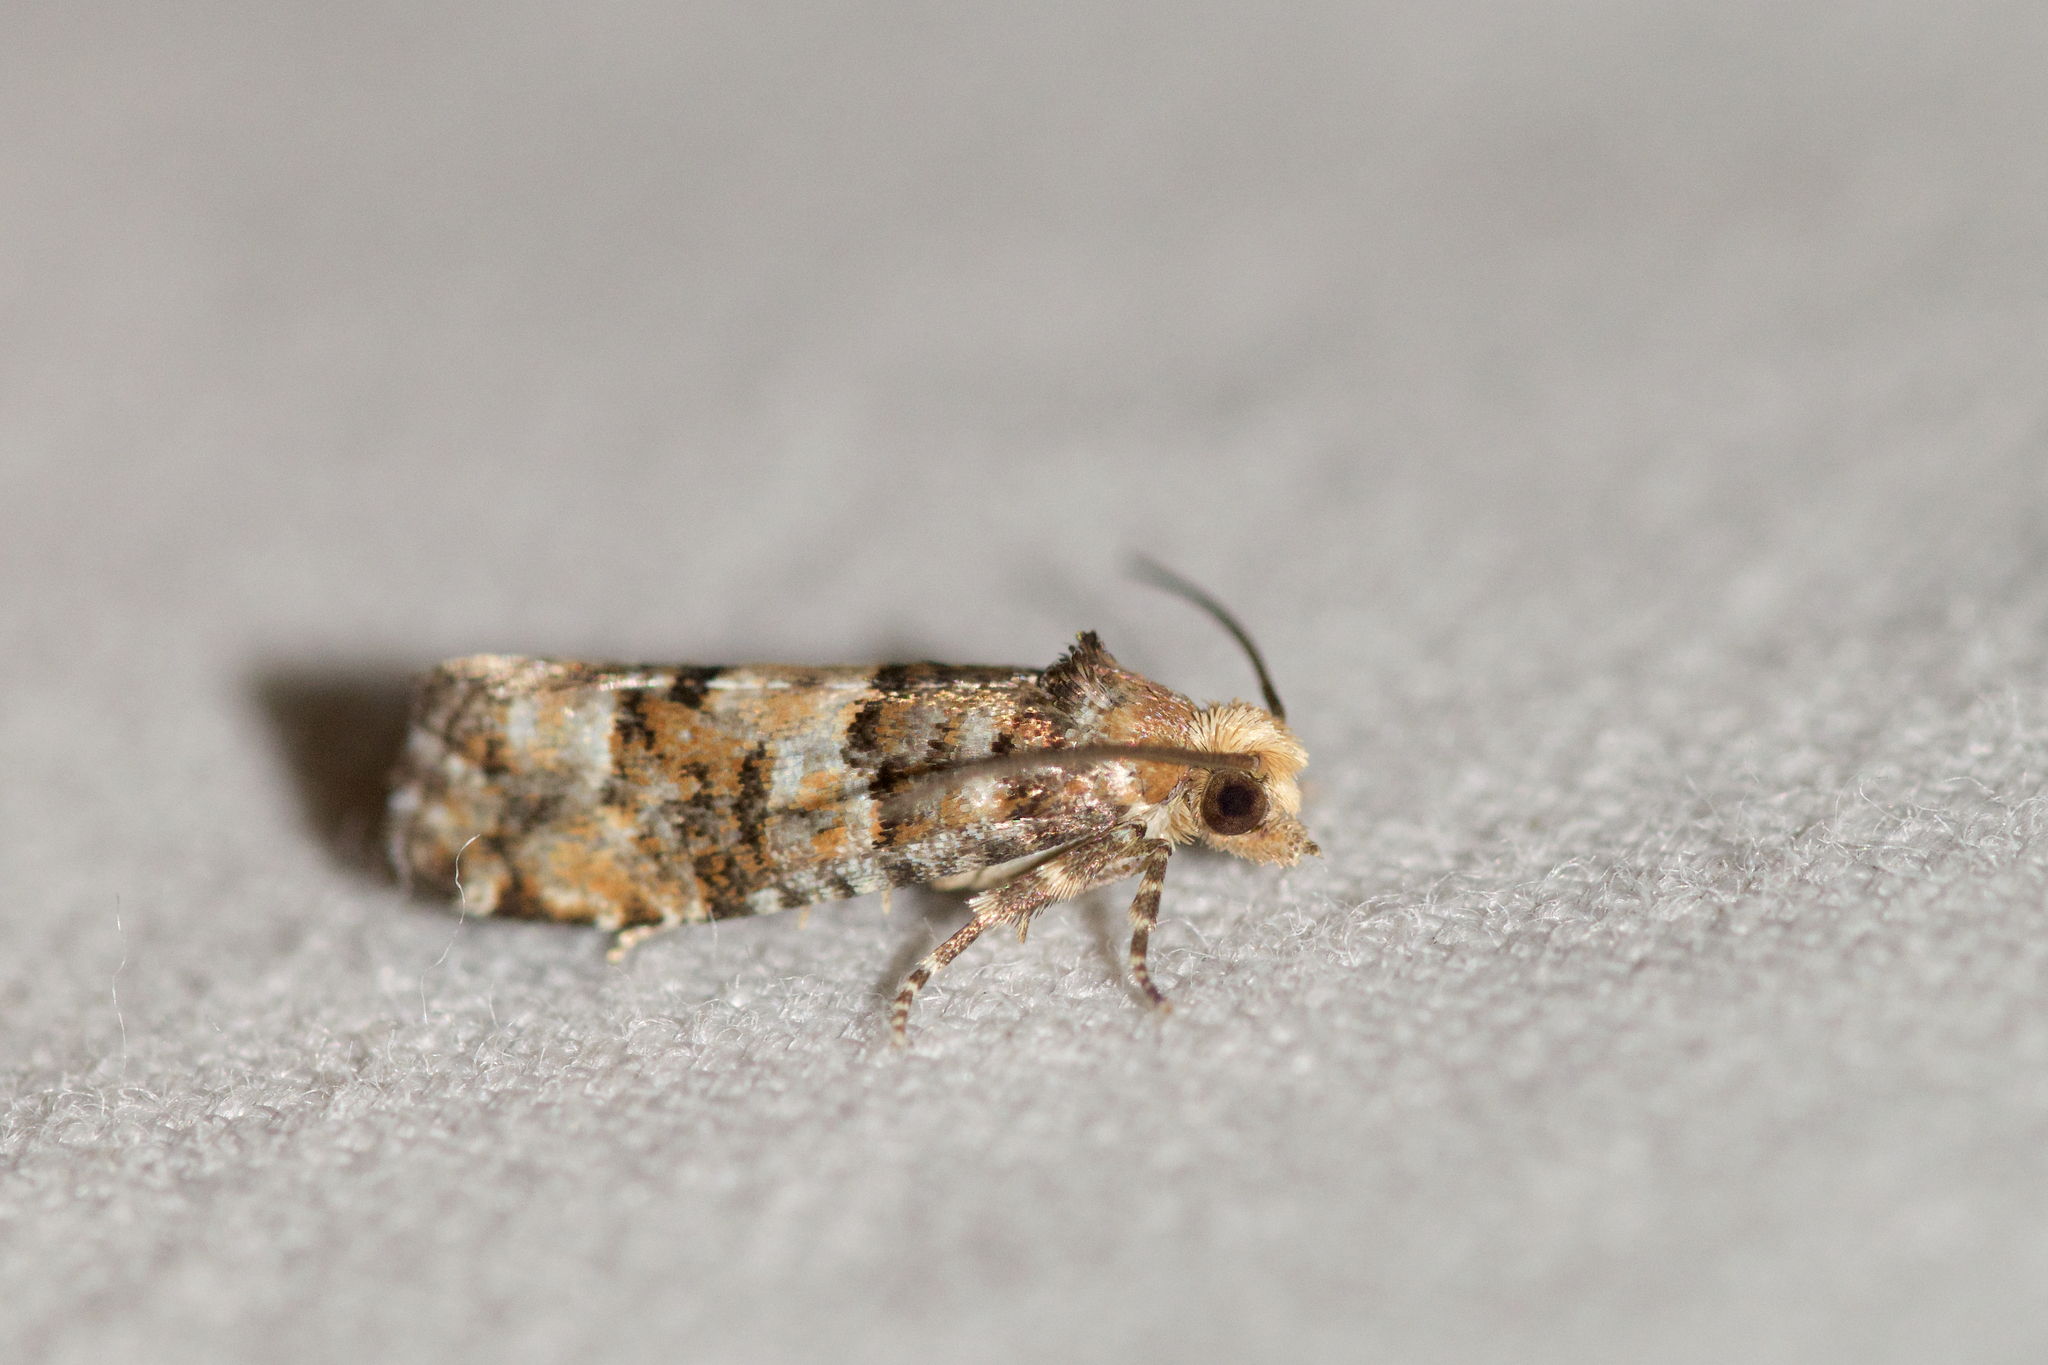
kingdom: Animalia
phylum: Arthropoda
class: Insecta
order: Lepidoptera
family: Tortricidae
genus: Eucopina
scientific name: Eucopina tocullionana
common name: White pinecone borer moth
